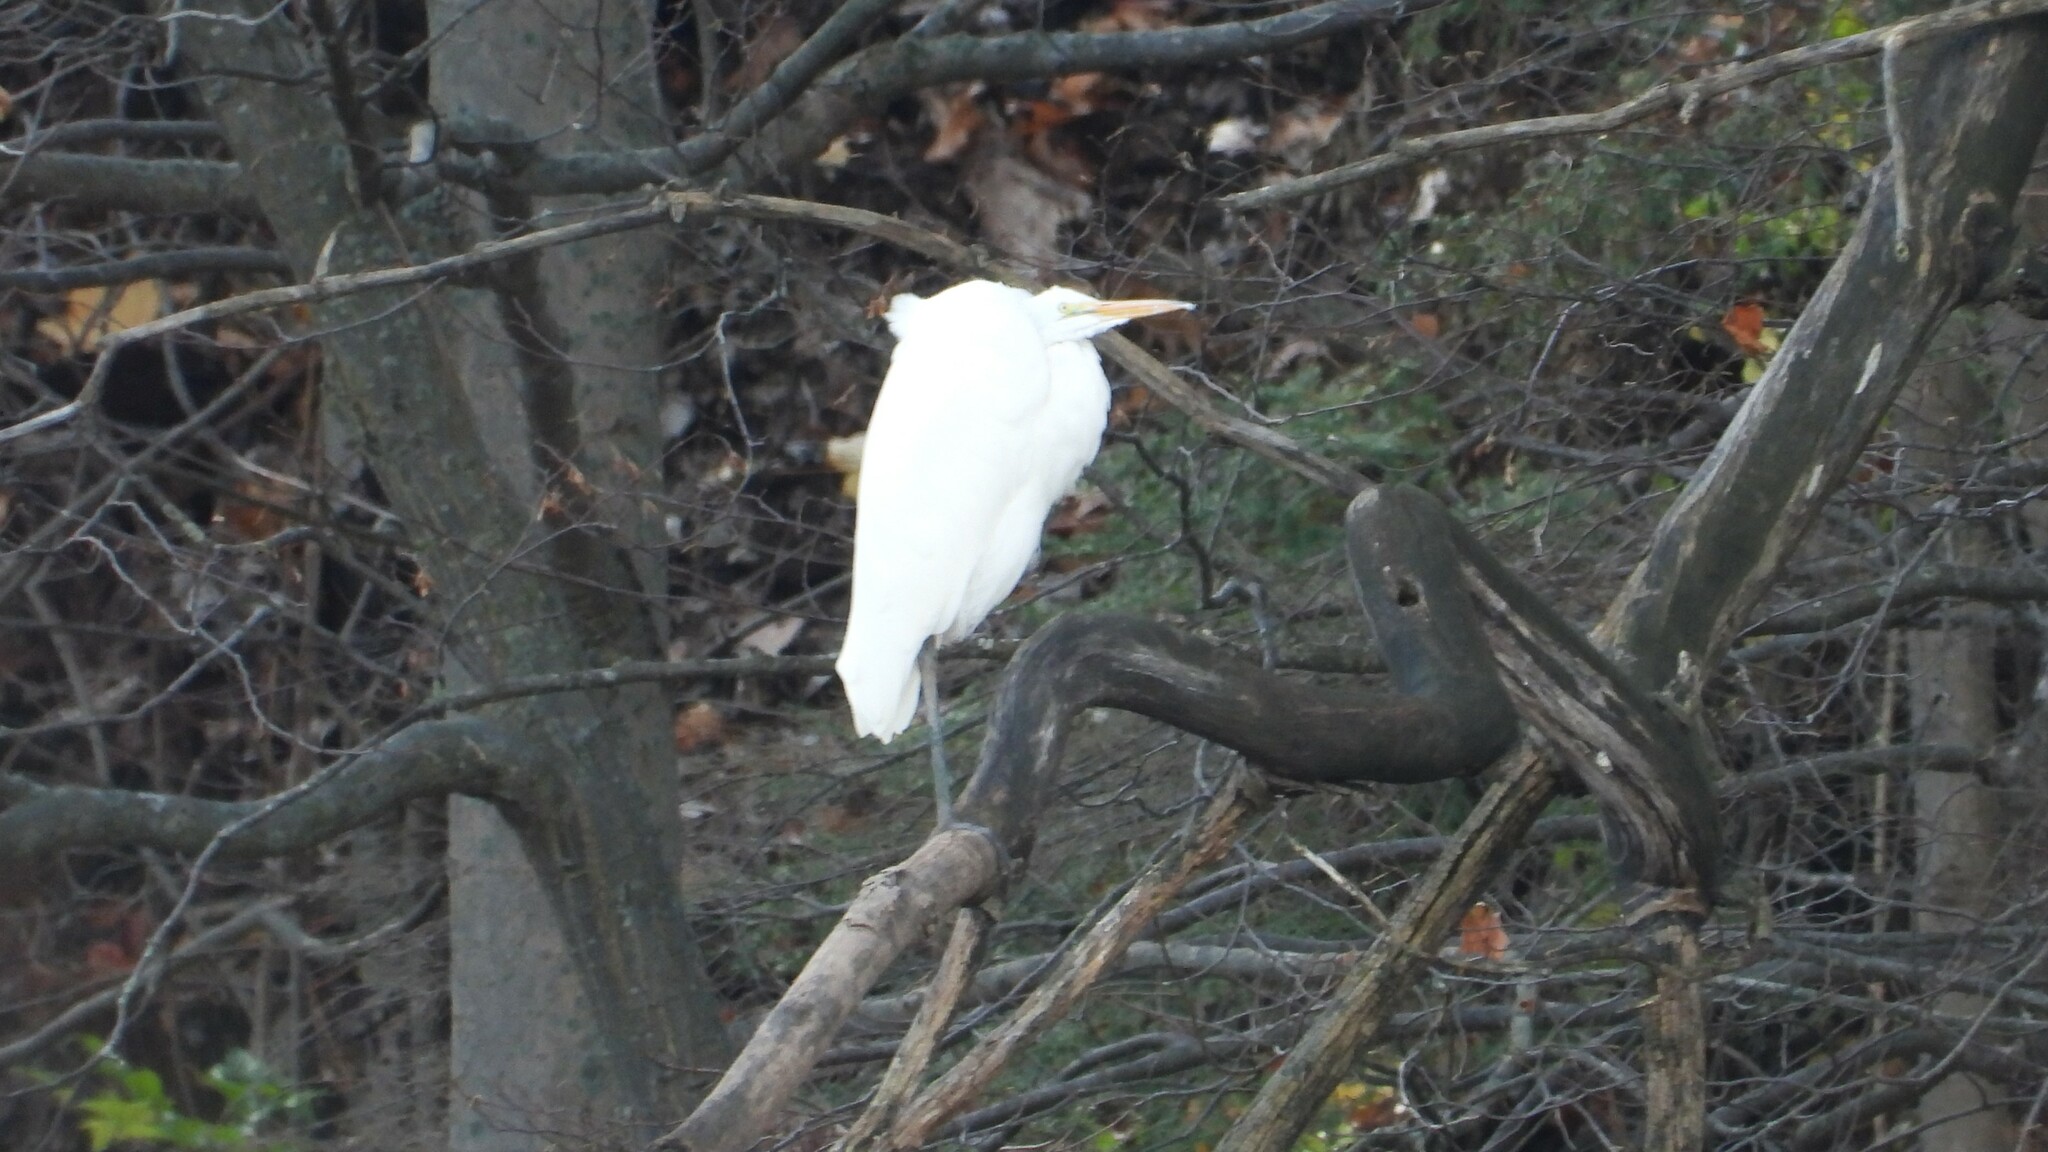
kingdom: Animalia
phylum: Chordata
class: Aves
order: Pelecaniformes
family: Ardeidae
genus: Ardea
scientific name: Ardea alba
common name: Great egret
